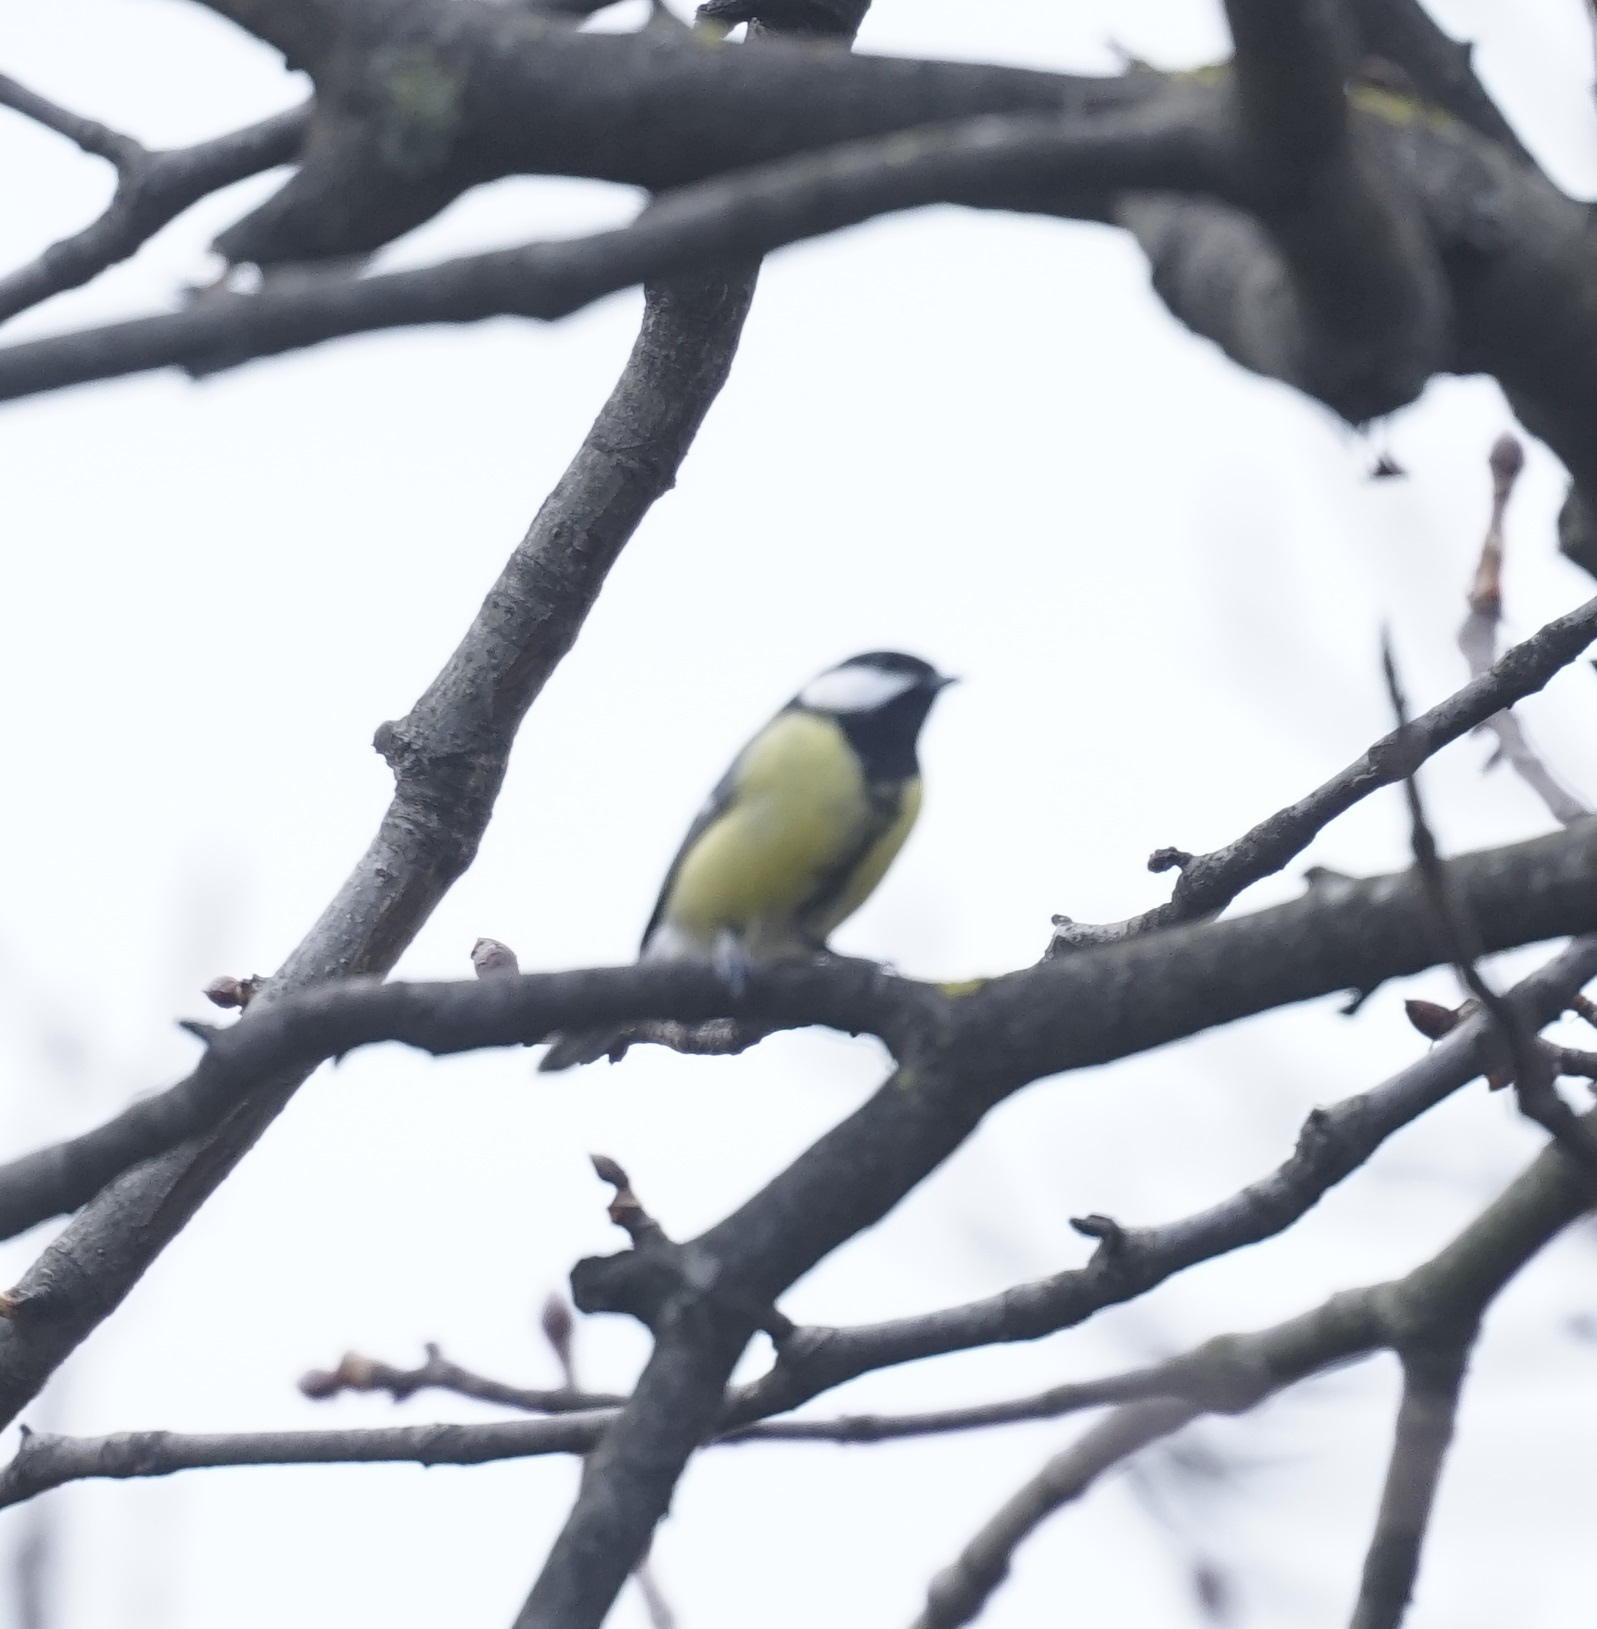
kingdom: Animalia
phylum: Chordata
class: Aves
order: Passeriformes
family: Paridae
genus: Parus
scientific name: Parus major
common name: Great tit
